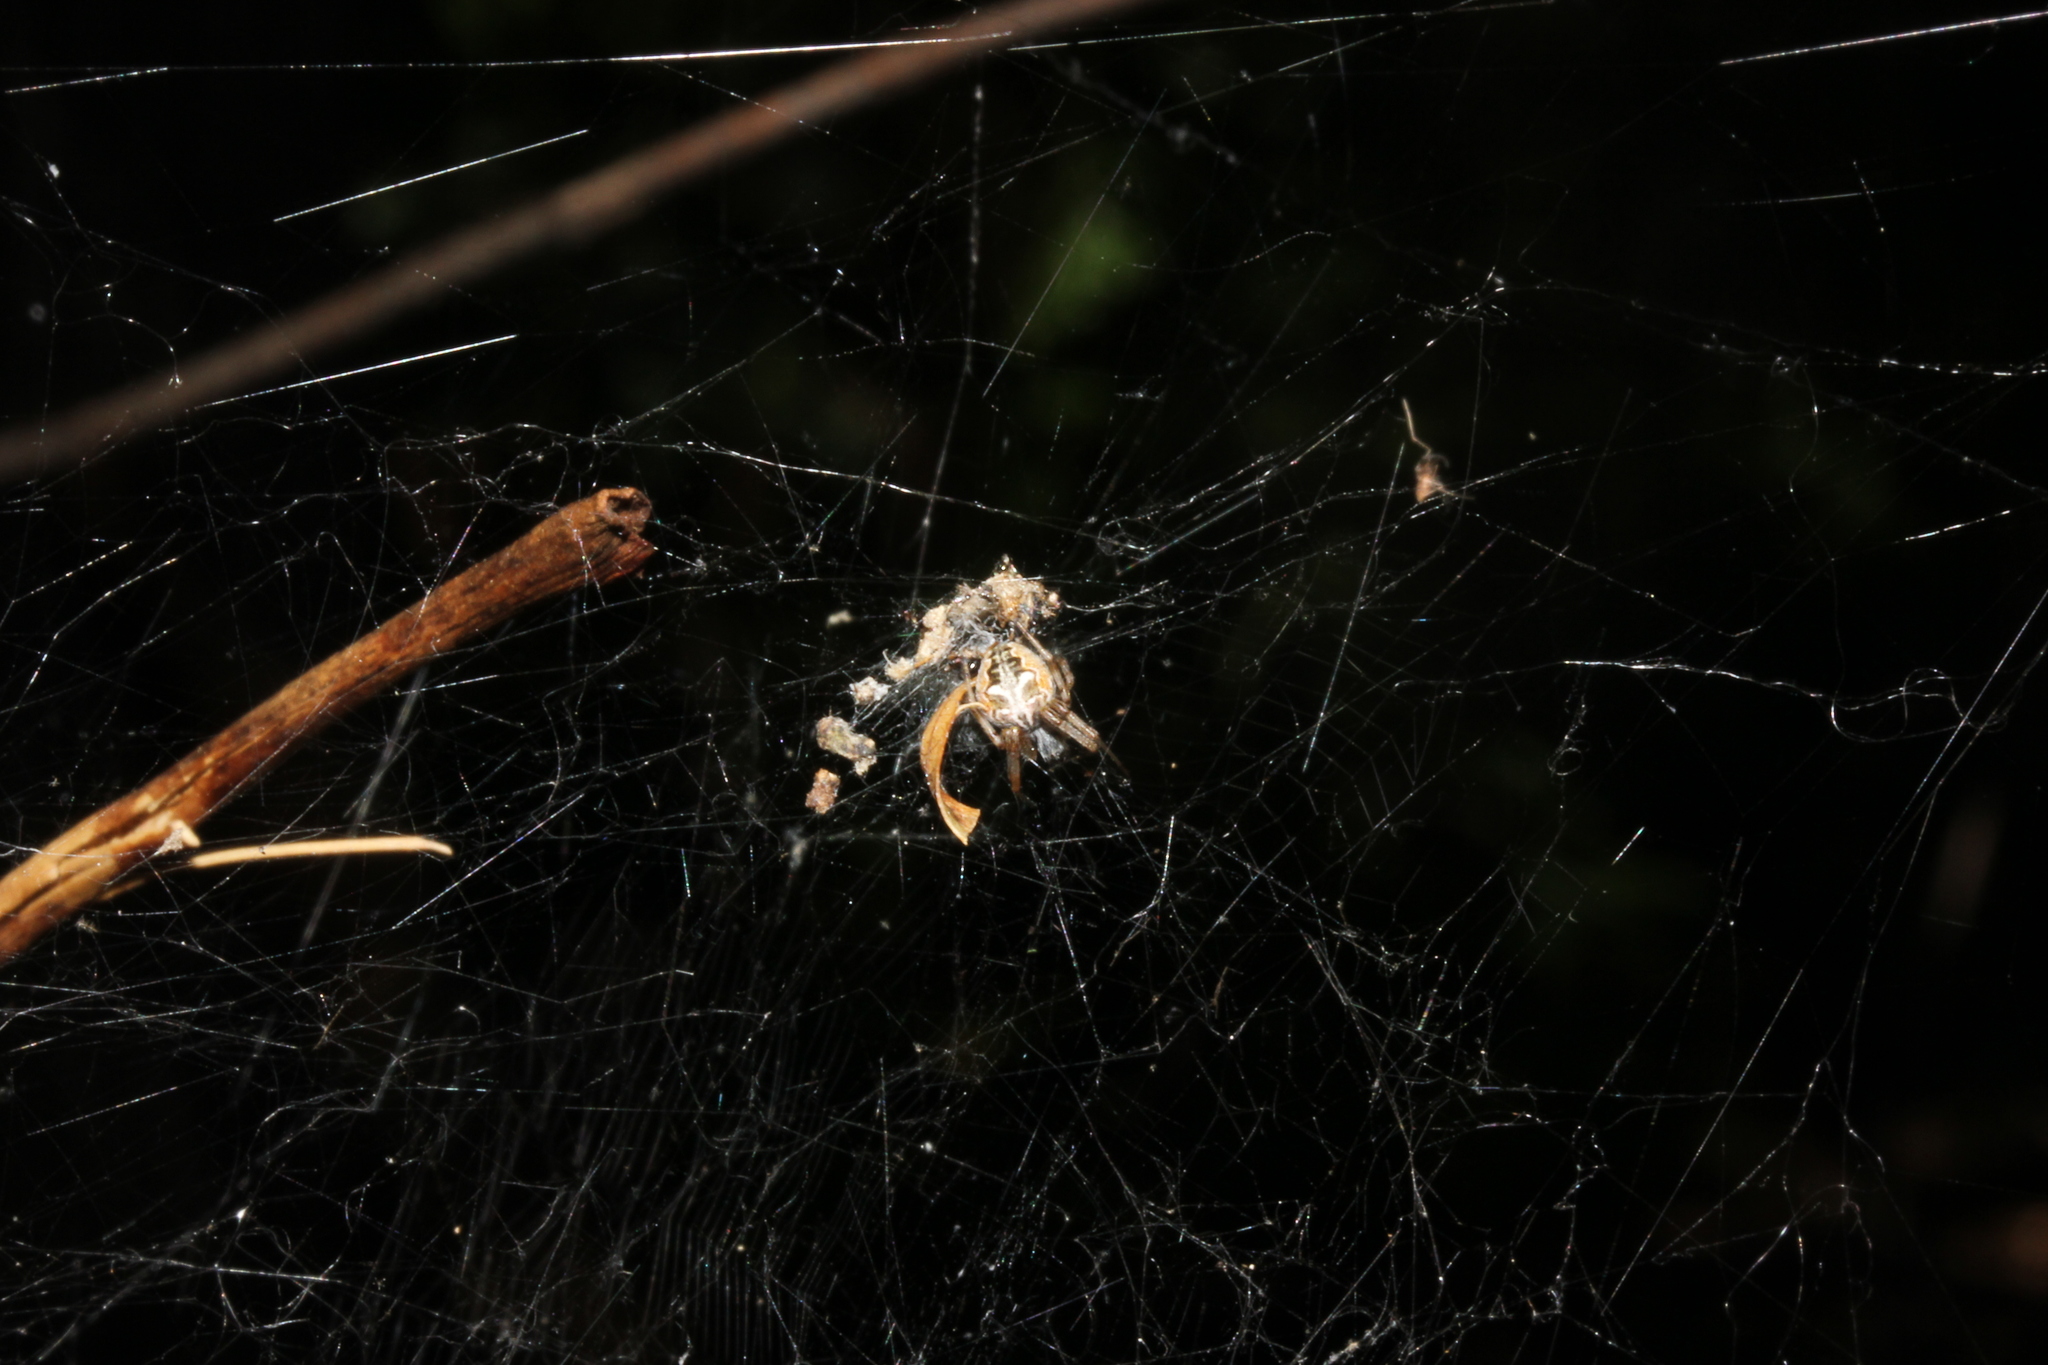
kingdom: Animalia
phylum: Arthropoda
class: Arachnida
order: Araneae
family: Araneidae
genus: Metepeira
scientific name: Metepeira labyrinthea
